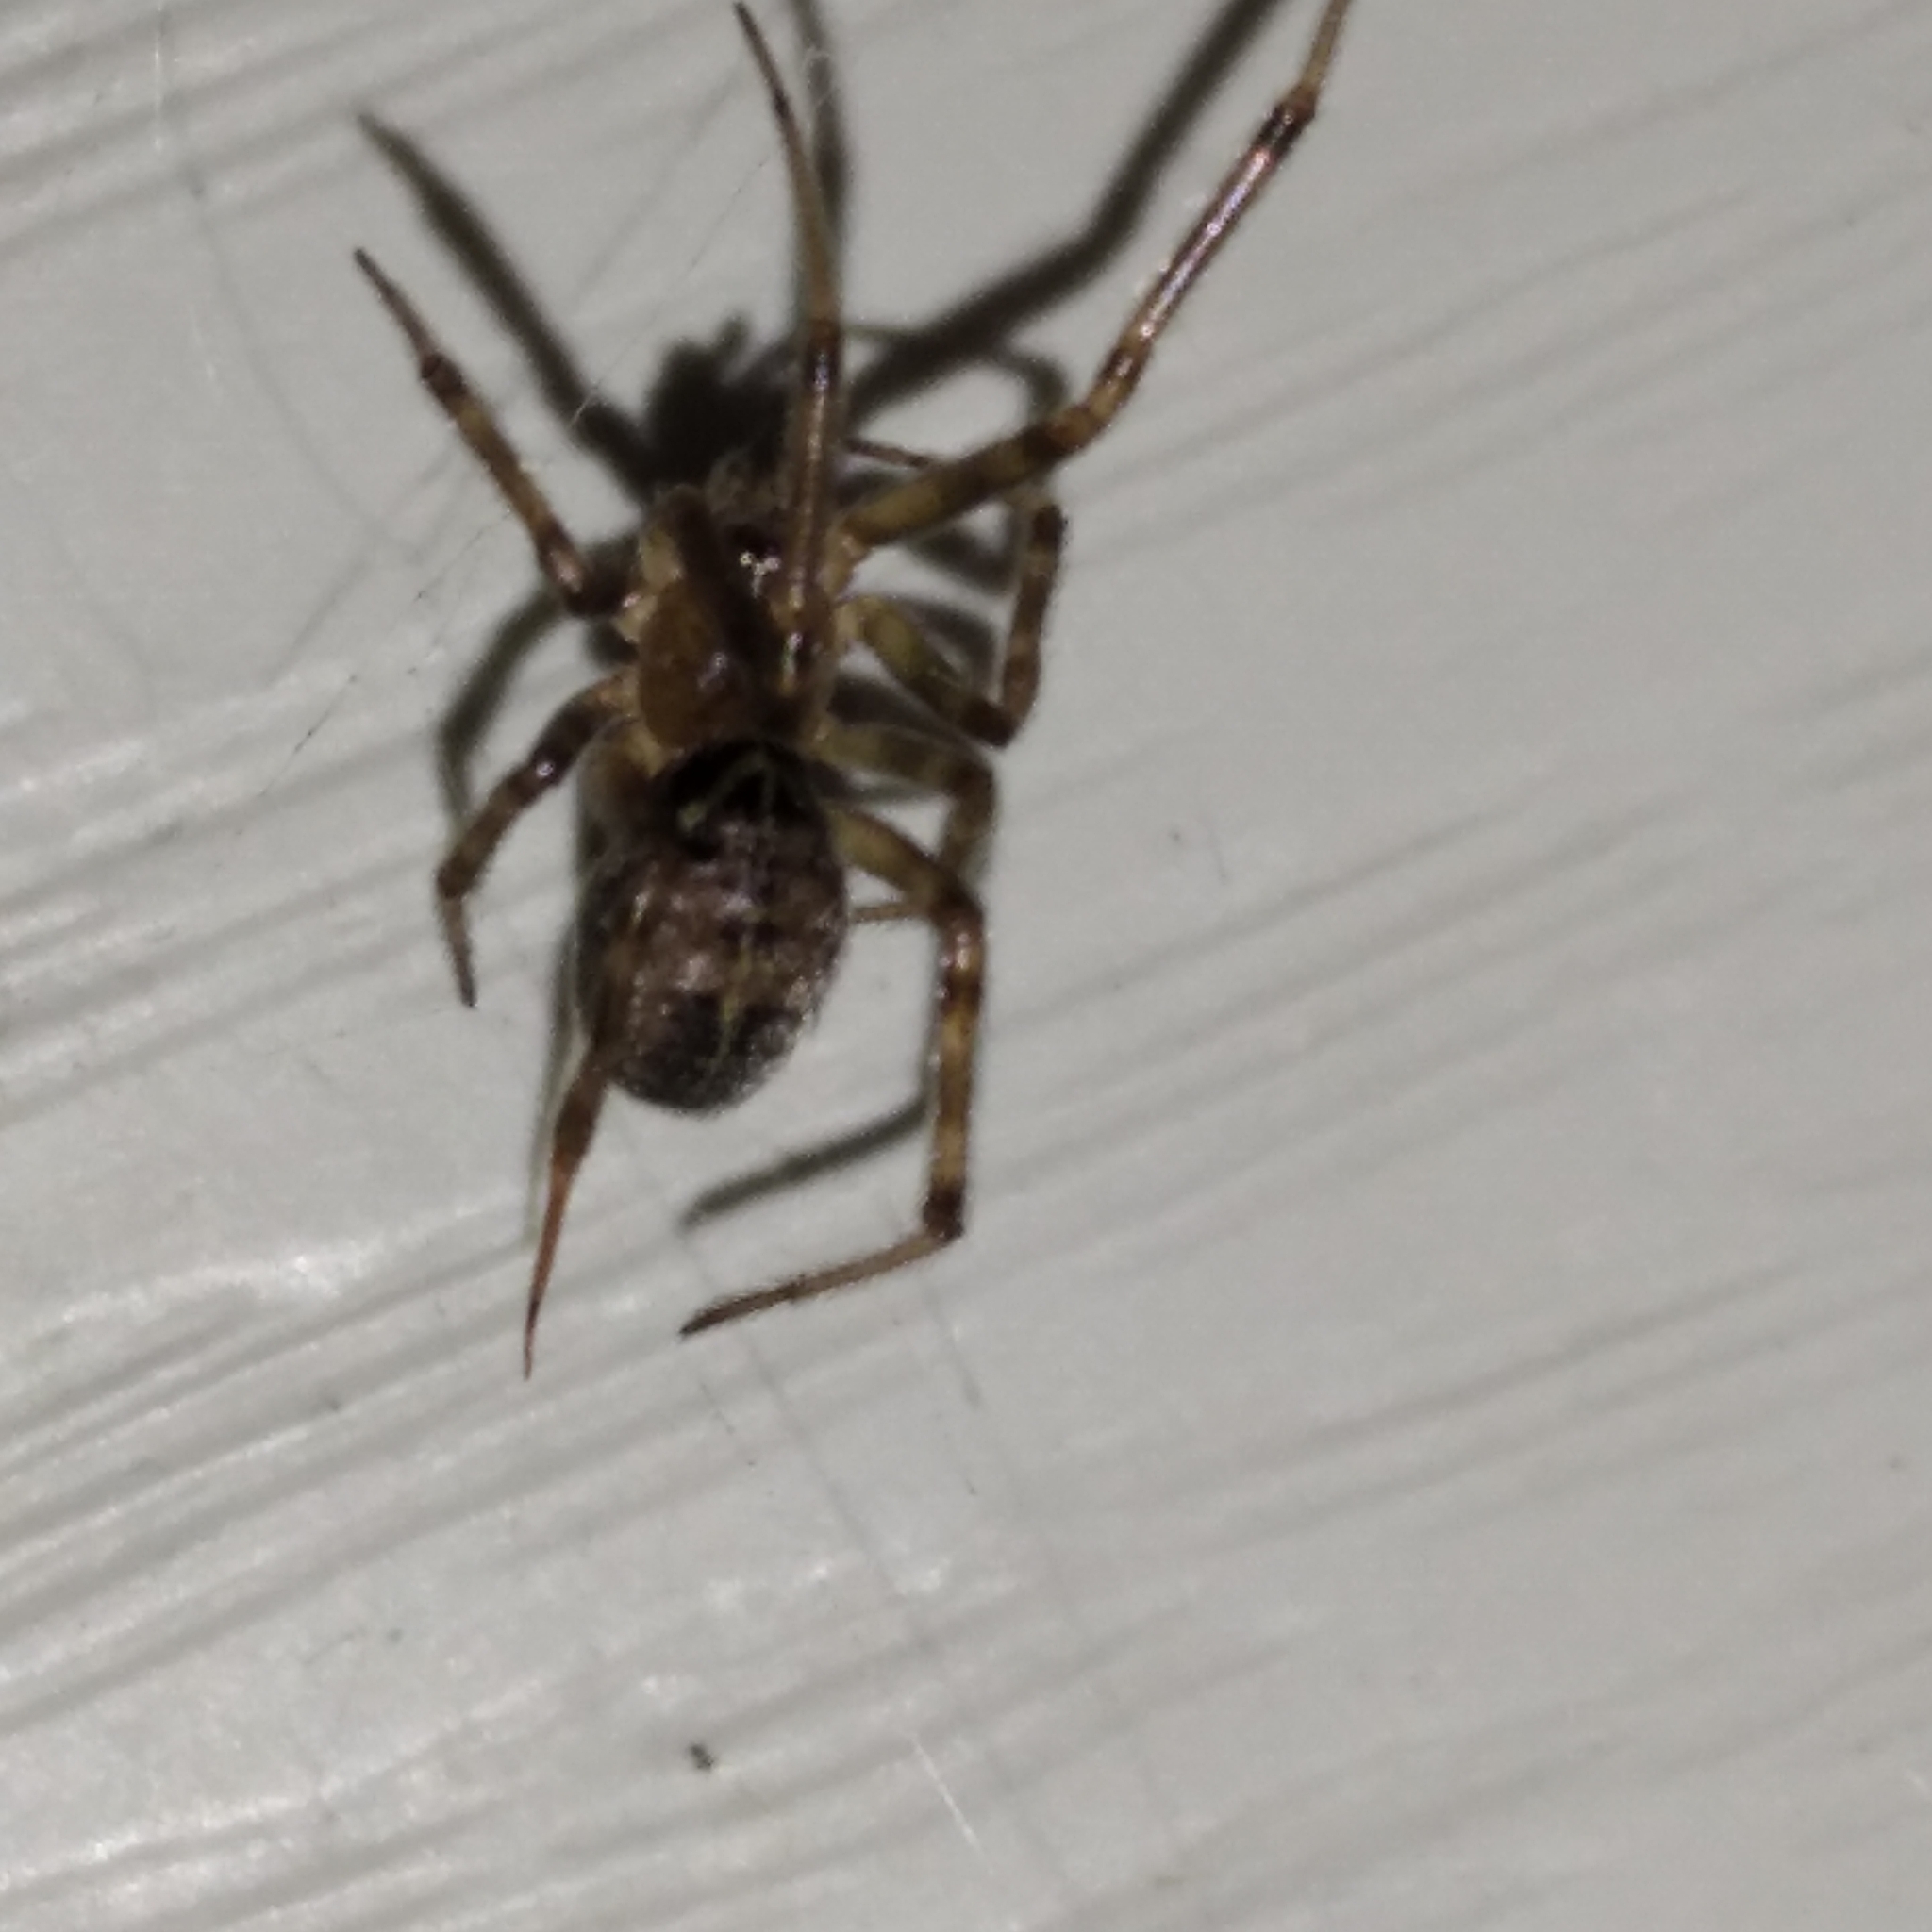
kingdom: Animalia
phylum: Arthropoda
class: Arachnida
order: Araneae
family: Theridiidae
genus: Steatoda
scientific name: Steatoda castanea
